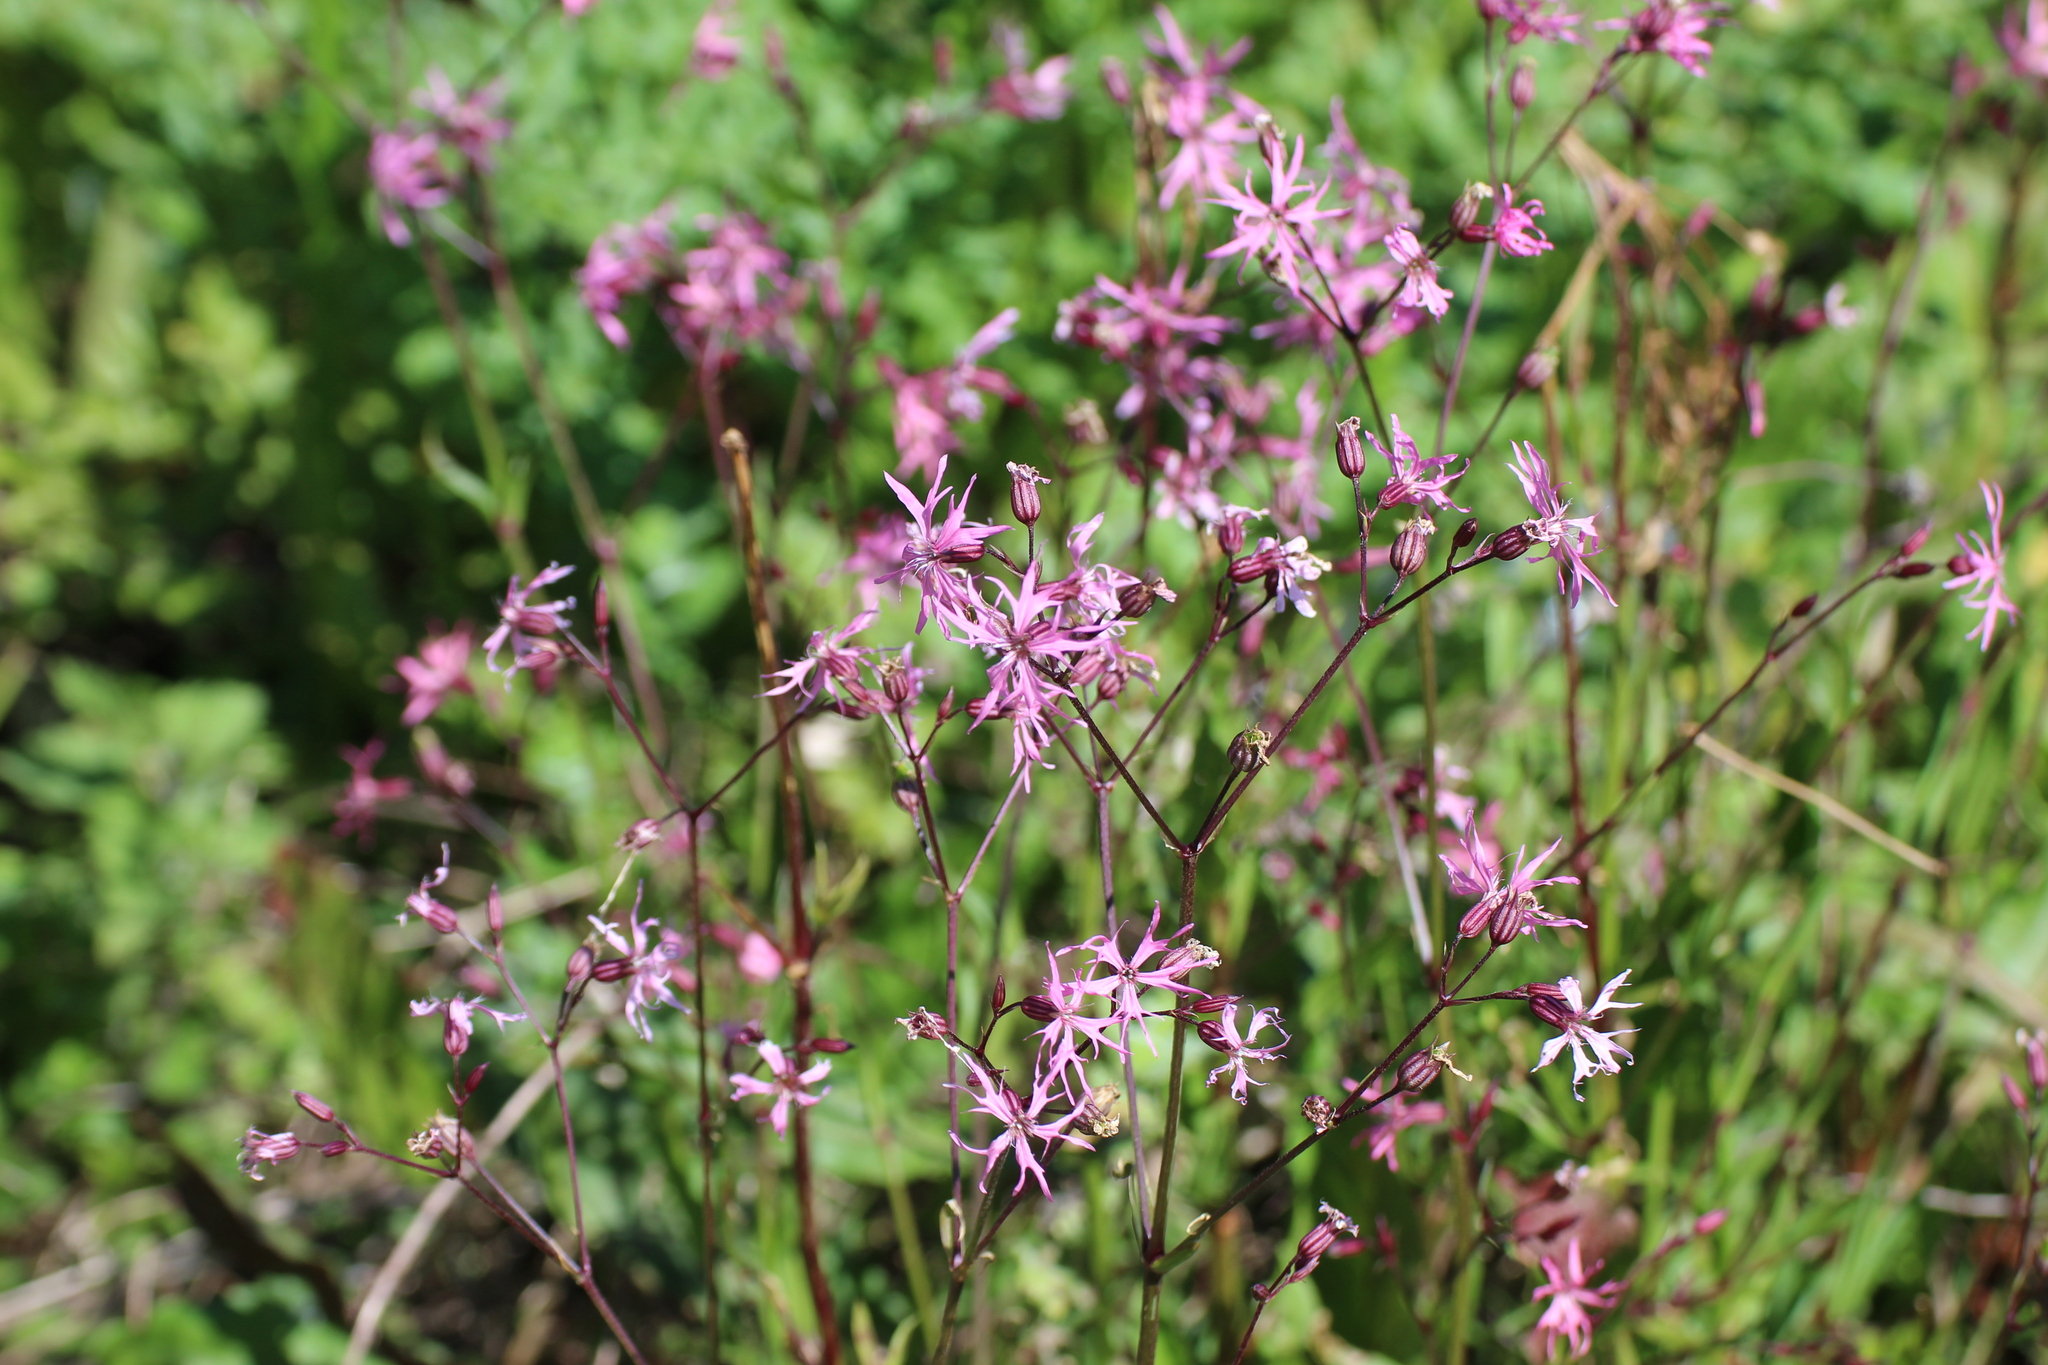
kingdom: Plantae
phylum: Tracheophyta
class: Magnoliopsida
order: Caryophyllales
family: Caryophyllaceae
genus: Silene
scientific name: Silene flos-cuculi
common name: Ragged-robin
